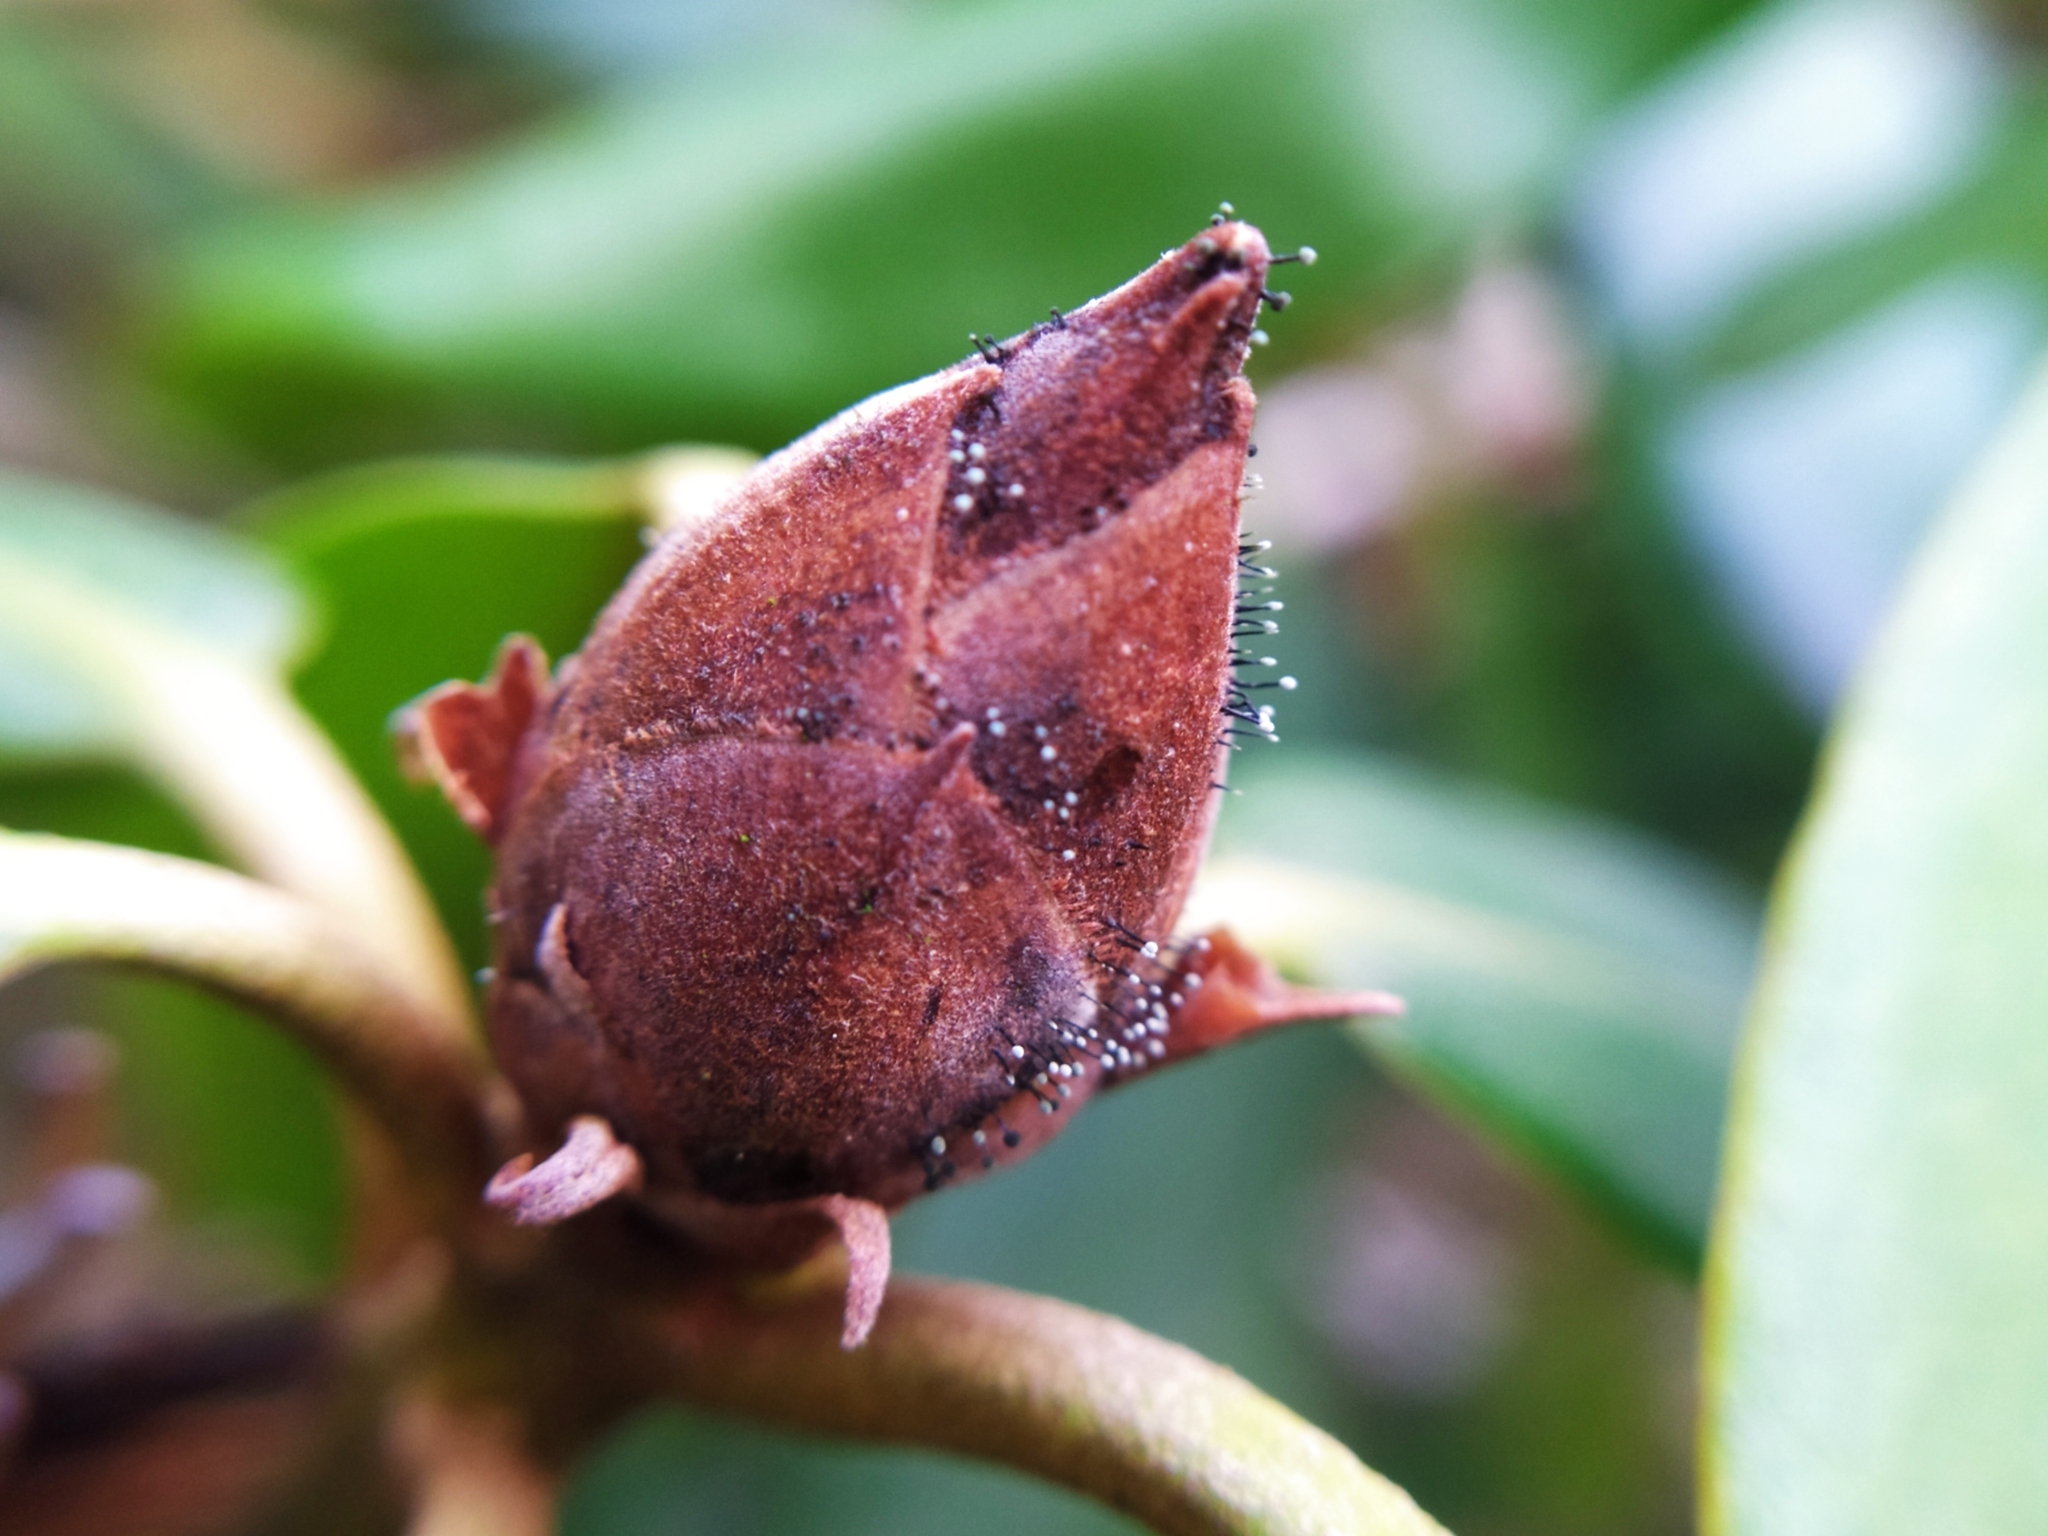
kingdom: Fungi
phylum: Ascomycota
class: Dothideomycetes
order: Pleosporales
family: Melanommataceae
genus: Seifertia
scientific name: Seifertia azaleae
